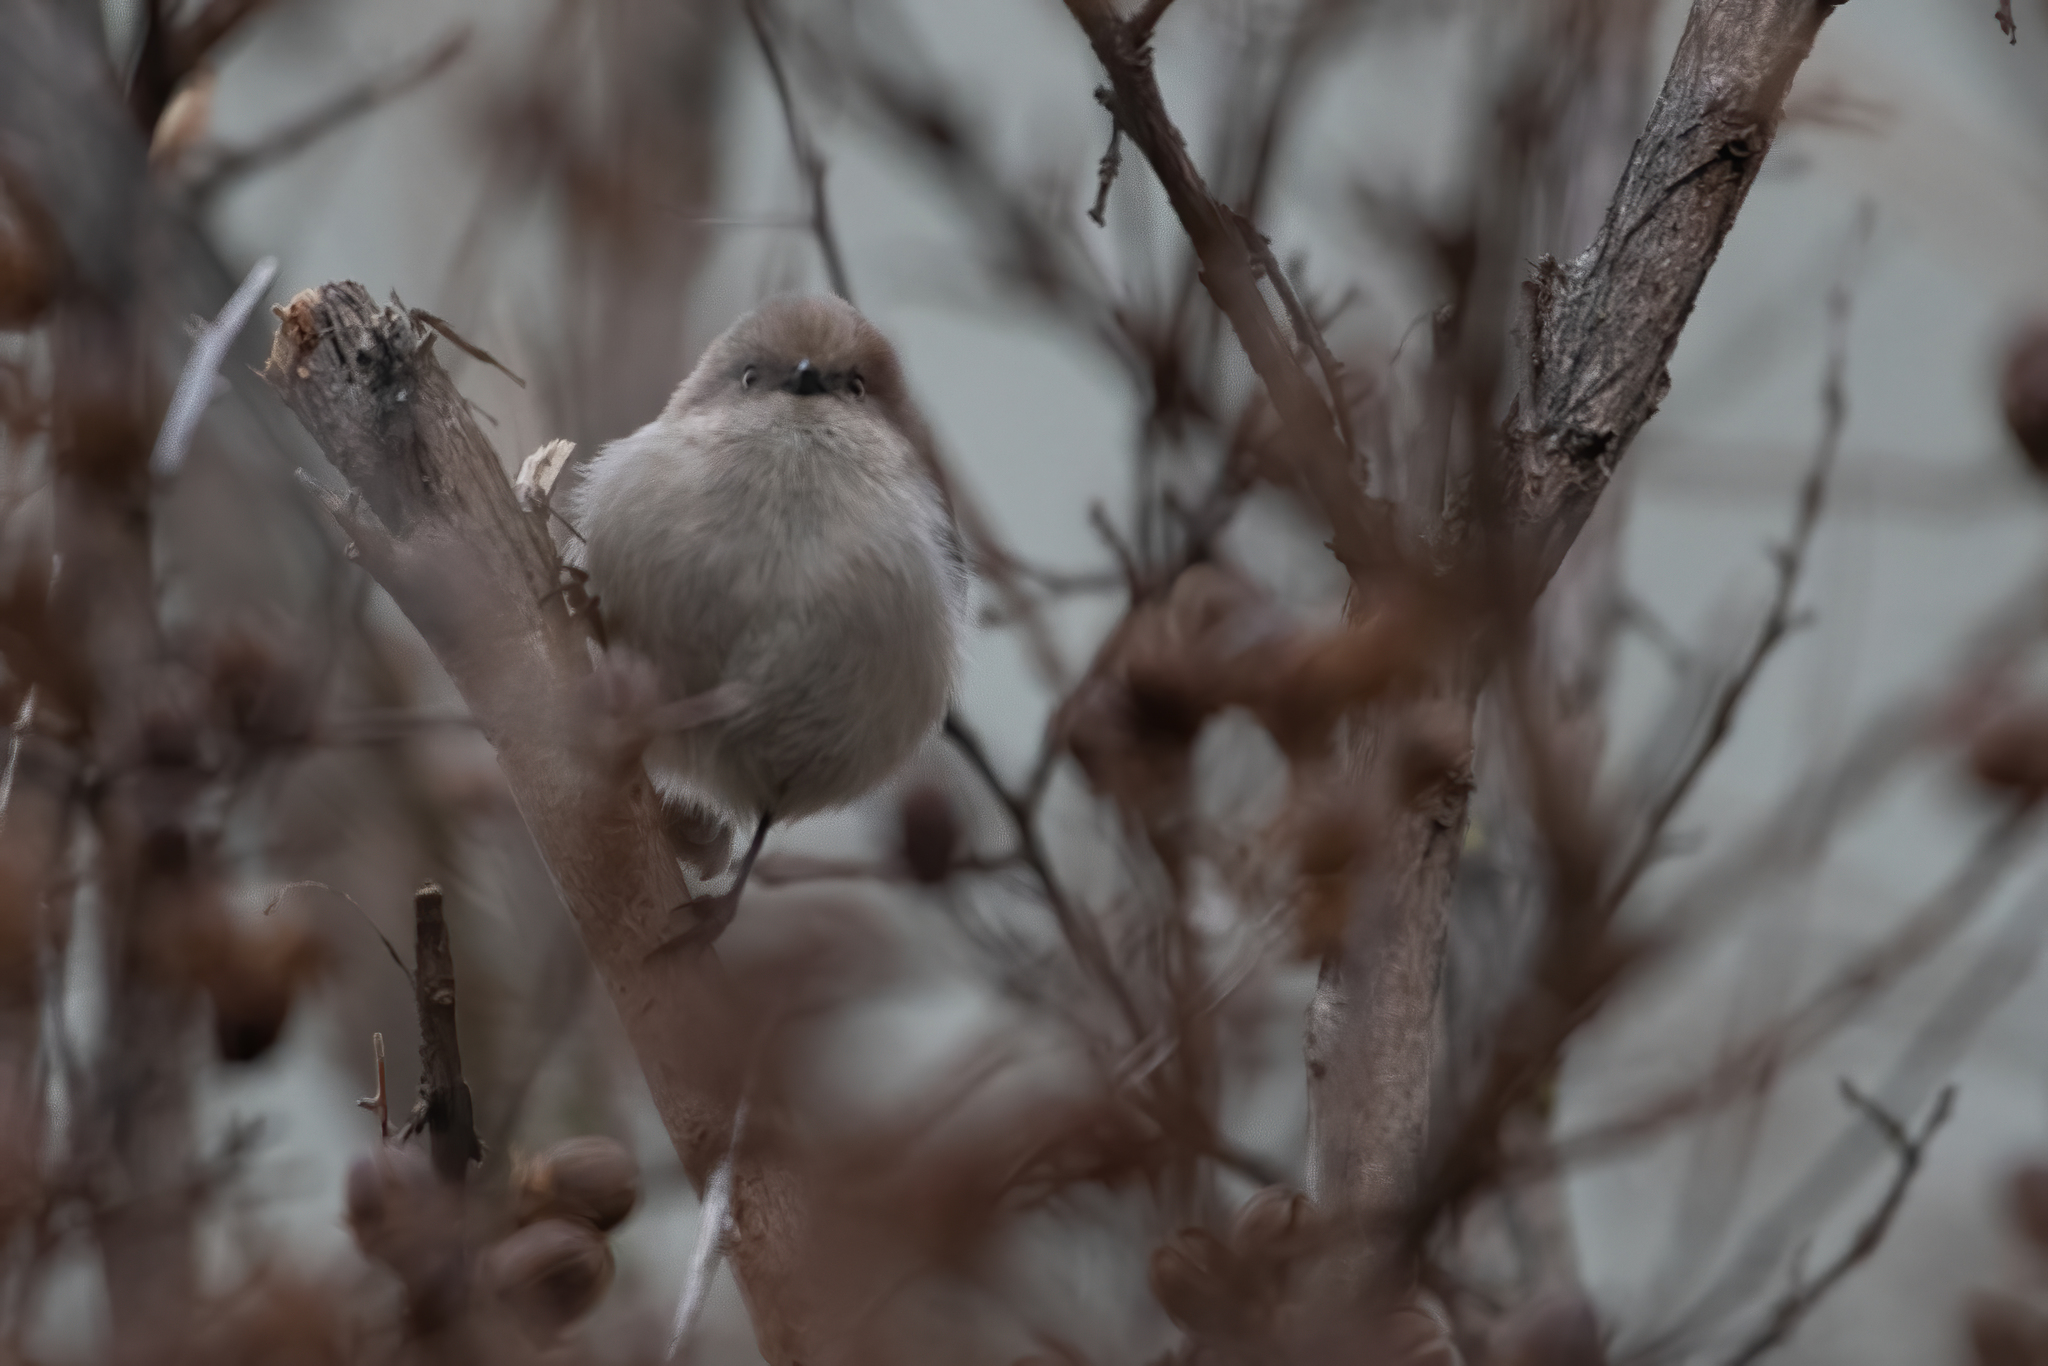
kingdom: Animalia
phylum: Chordata
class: Aves
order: Passeriformes
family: Aegithalidae
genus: Psaltriparus
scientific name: Psaltriparus minimus
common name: American bushtit
